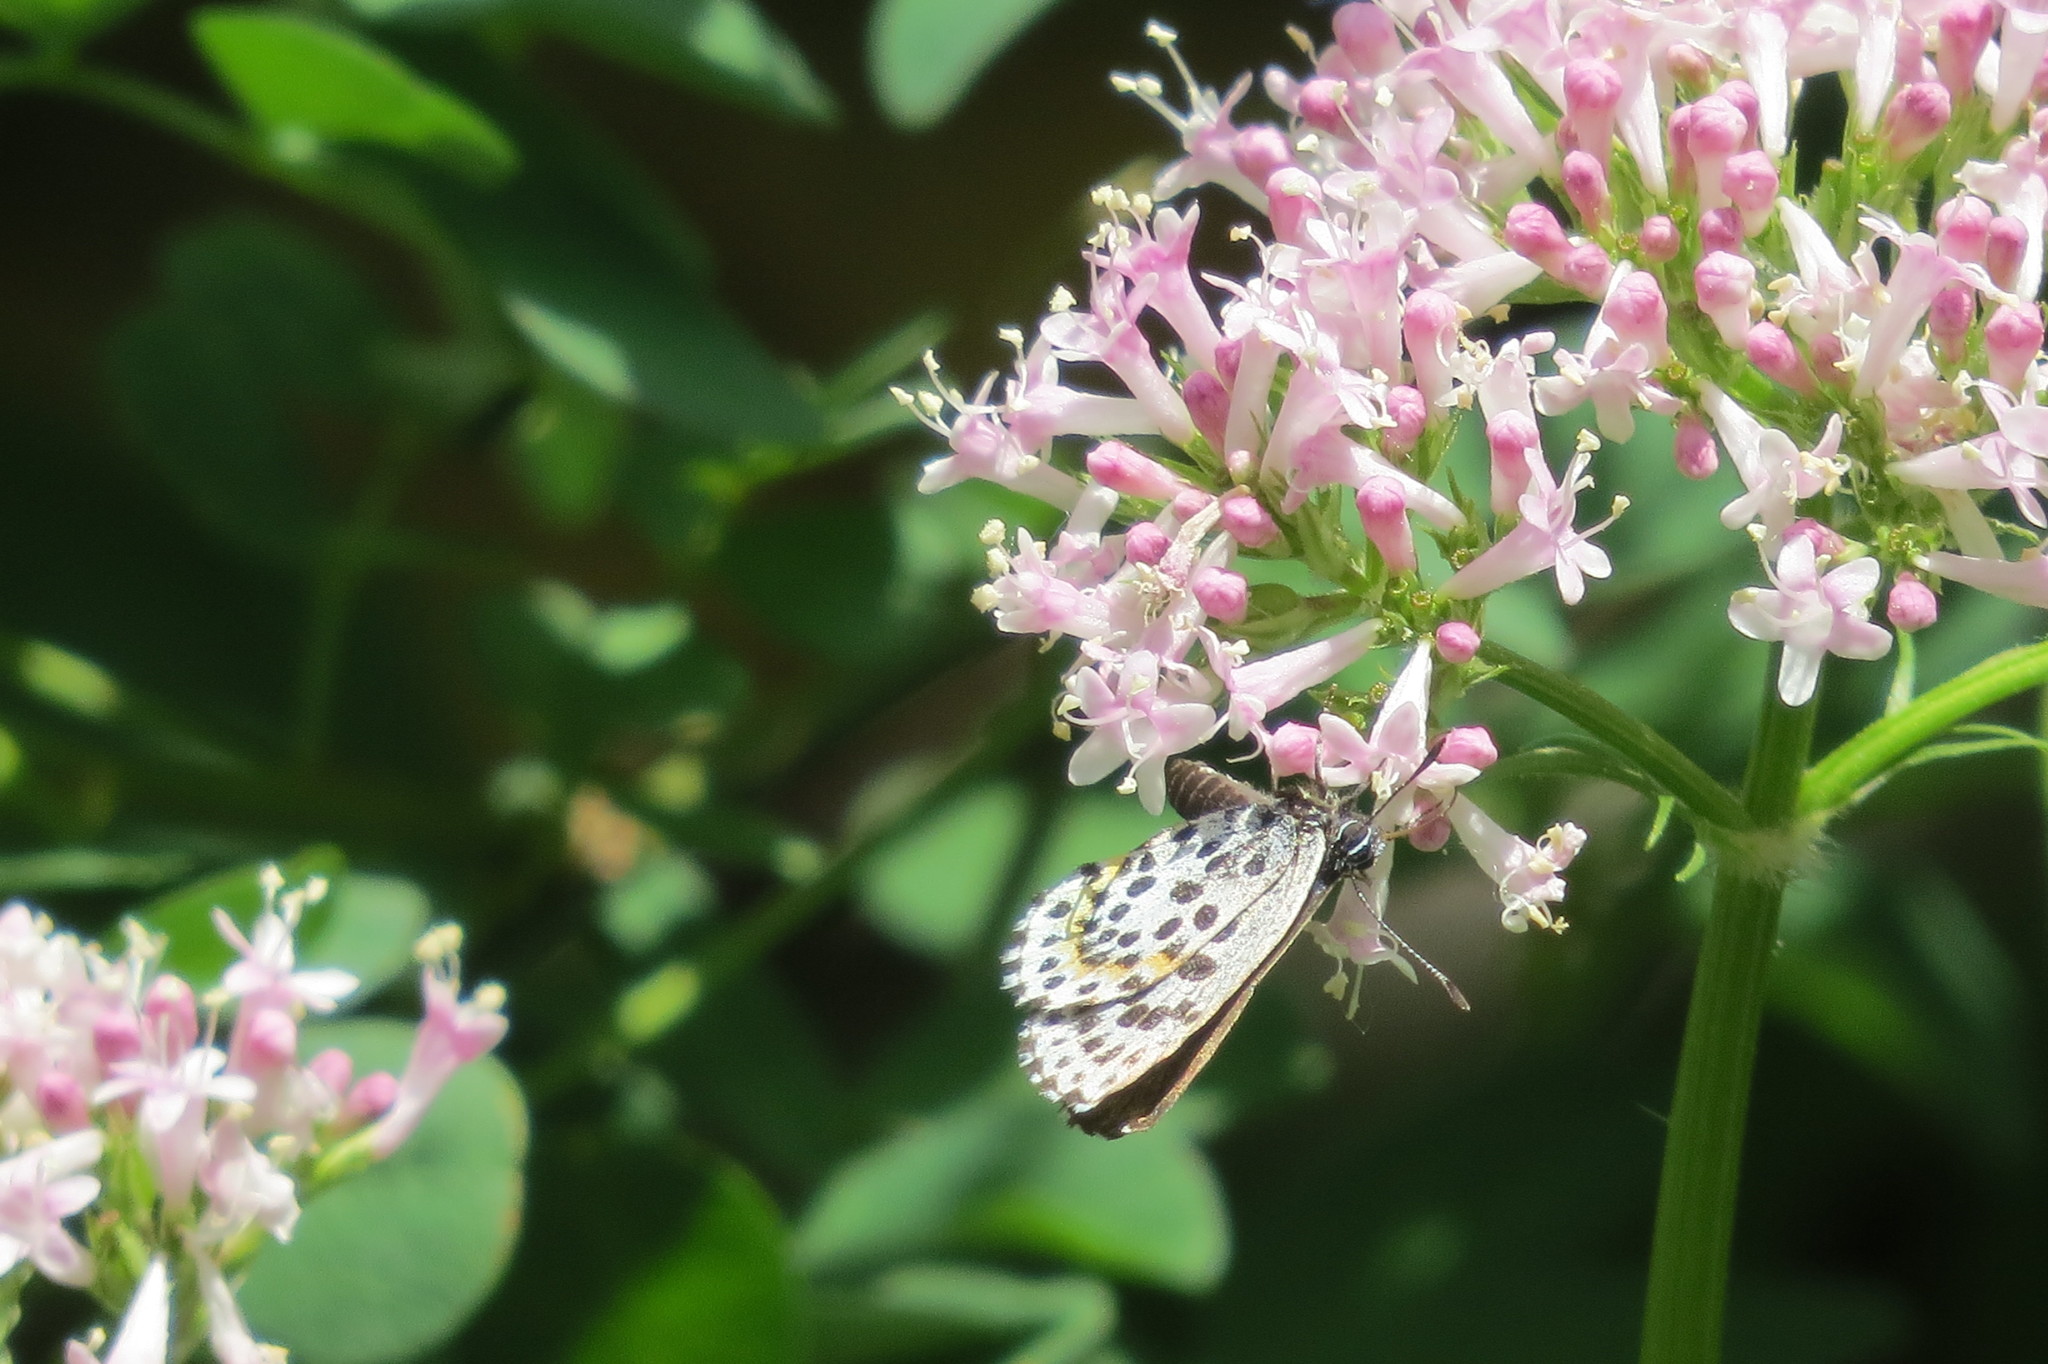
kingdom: Animalia
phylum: Arthropoda
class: Insecta
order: Lepidoptera
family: Lycaenidae
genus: Scolitantides
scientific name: Scolitantides orion
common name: Chequered blue
